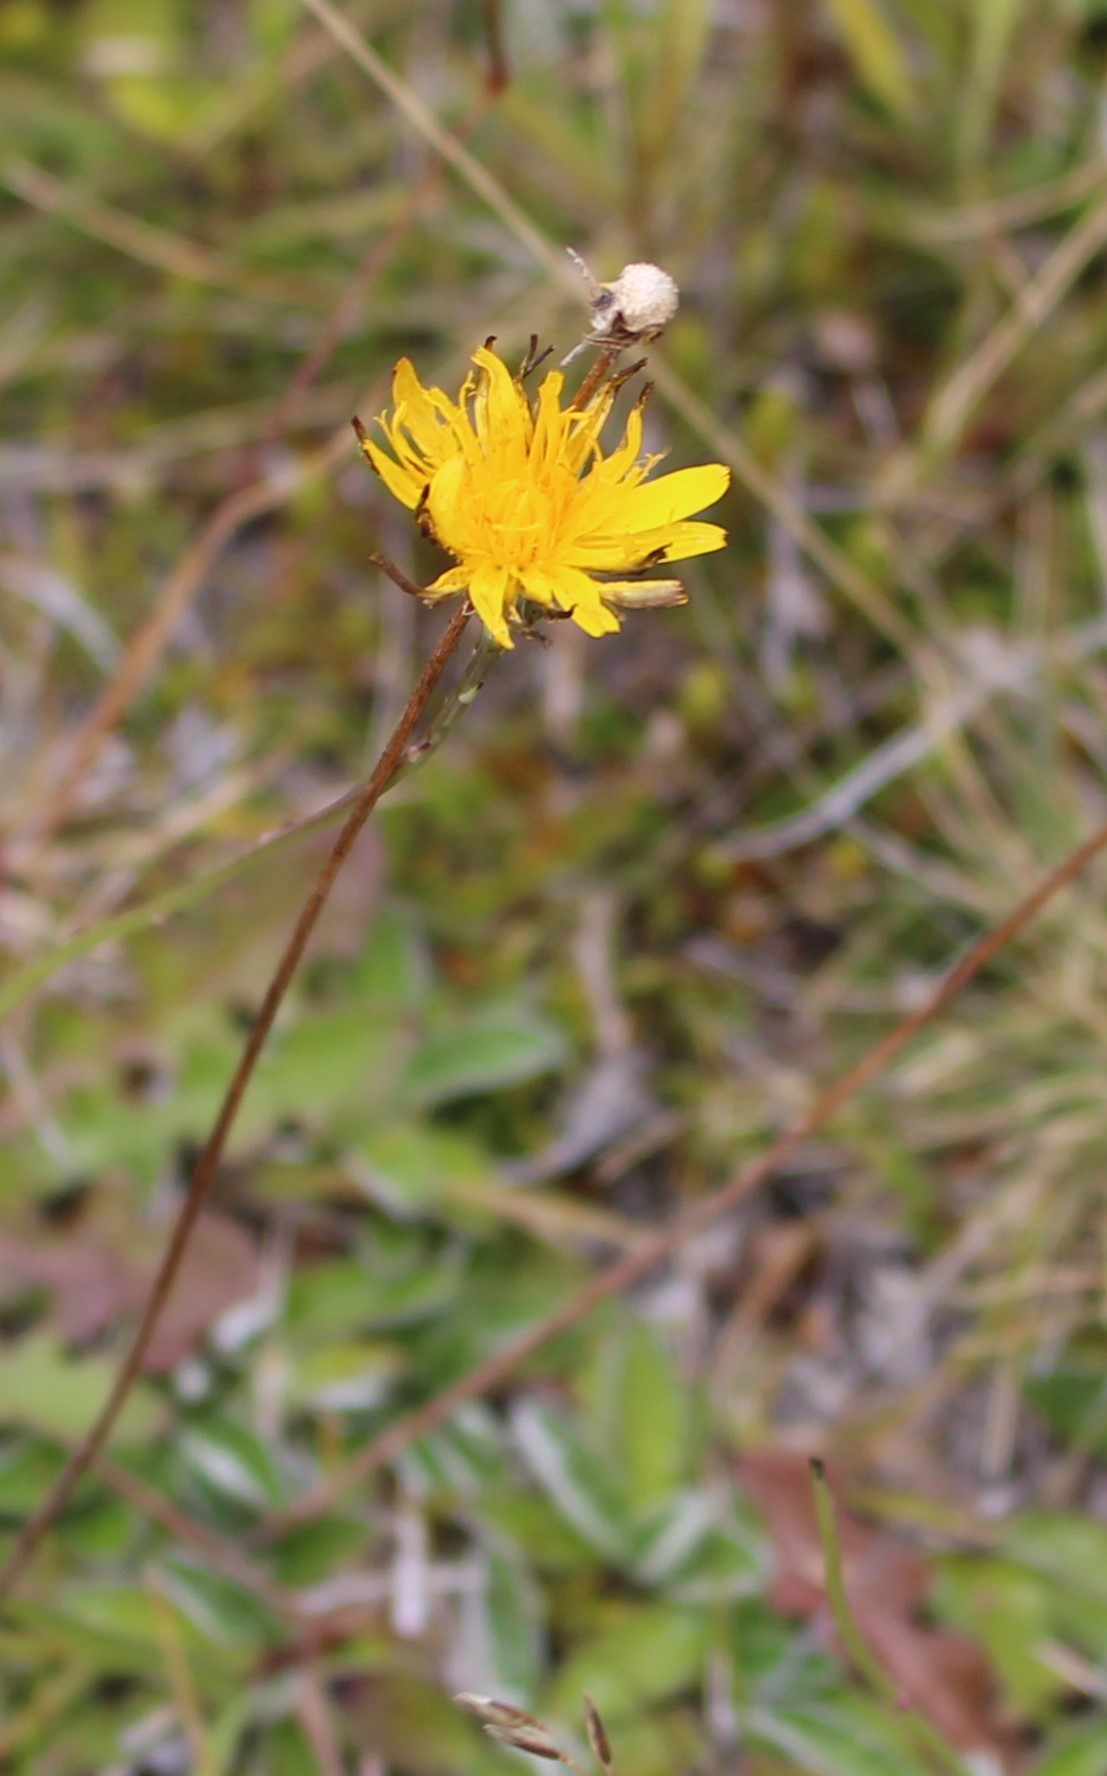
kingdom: Plantae
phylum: Tracheophyta
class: Magnoliopsida
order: Asterales
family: Asteraceae
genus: Pilosella
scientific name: Pilosella officinarum
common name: Mouse-ear hawkweed
